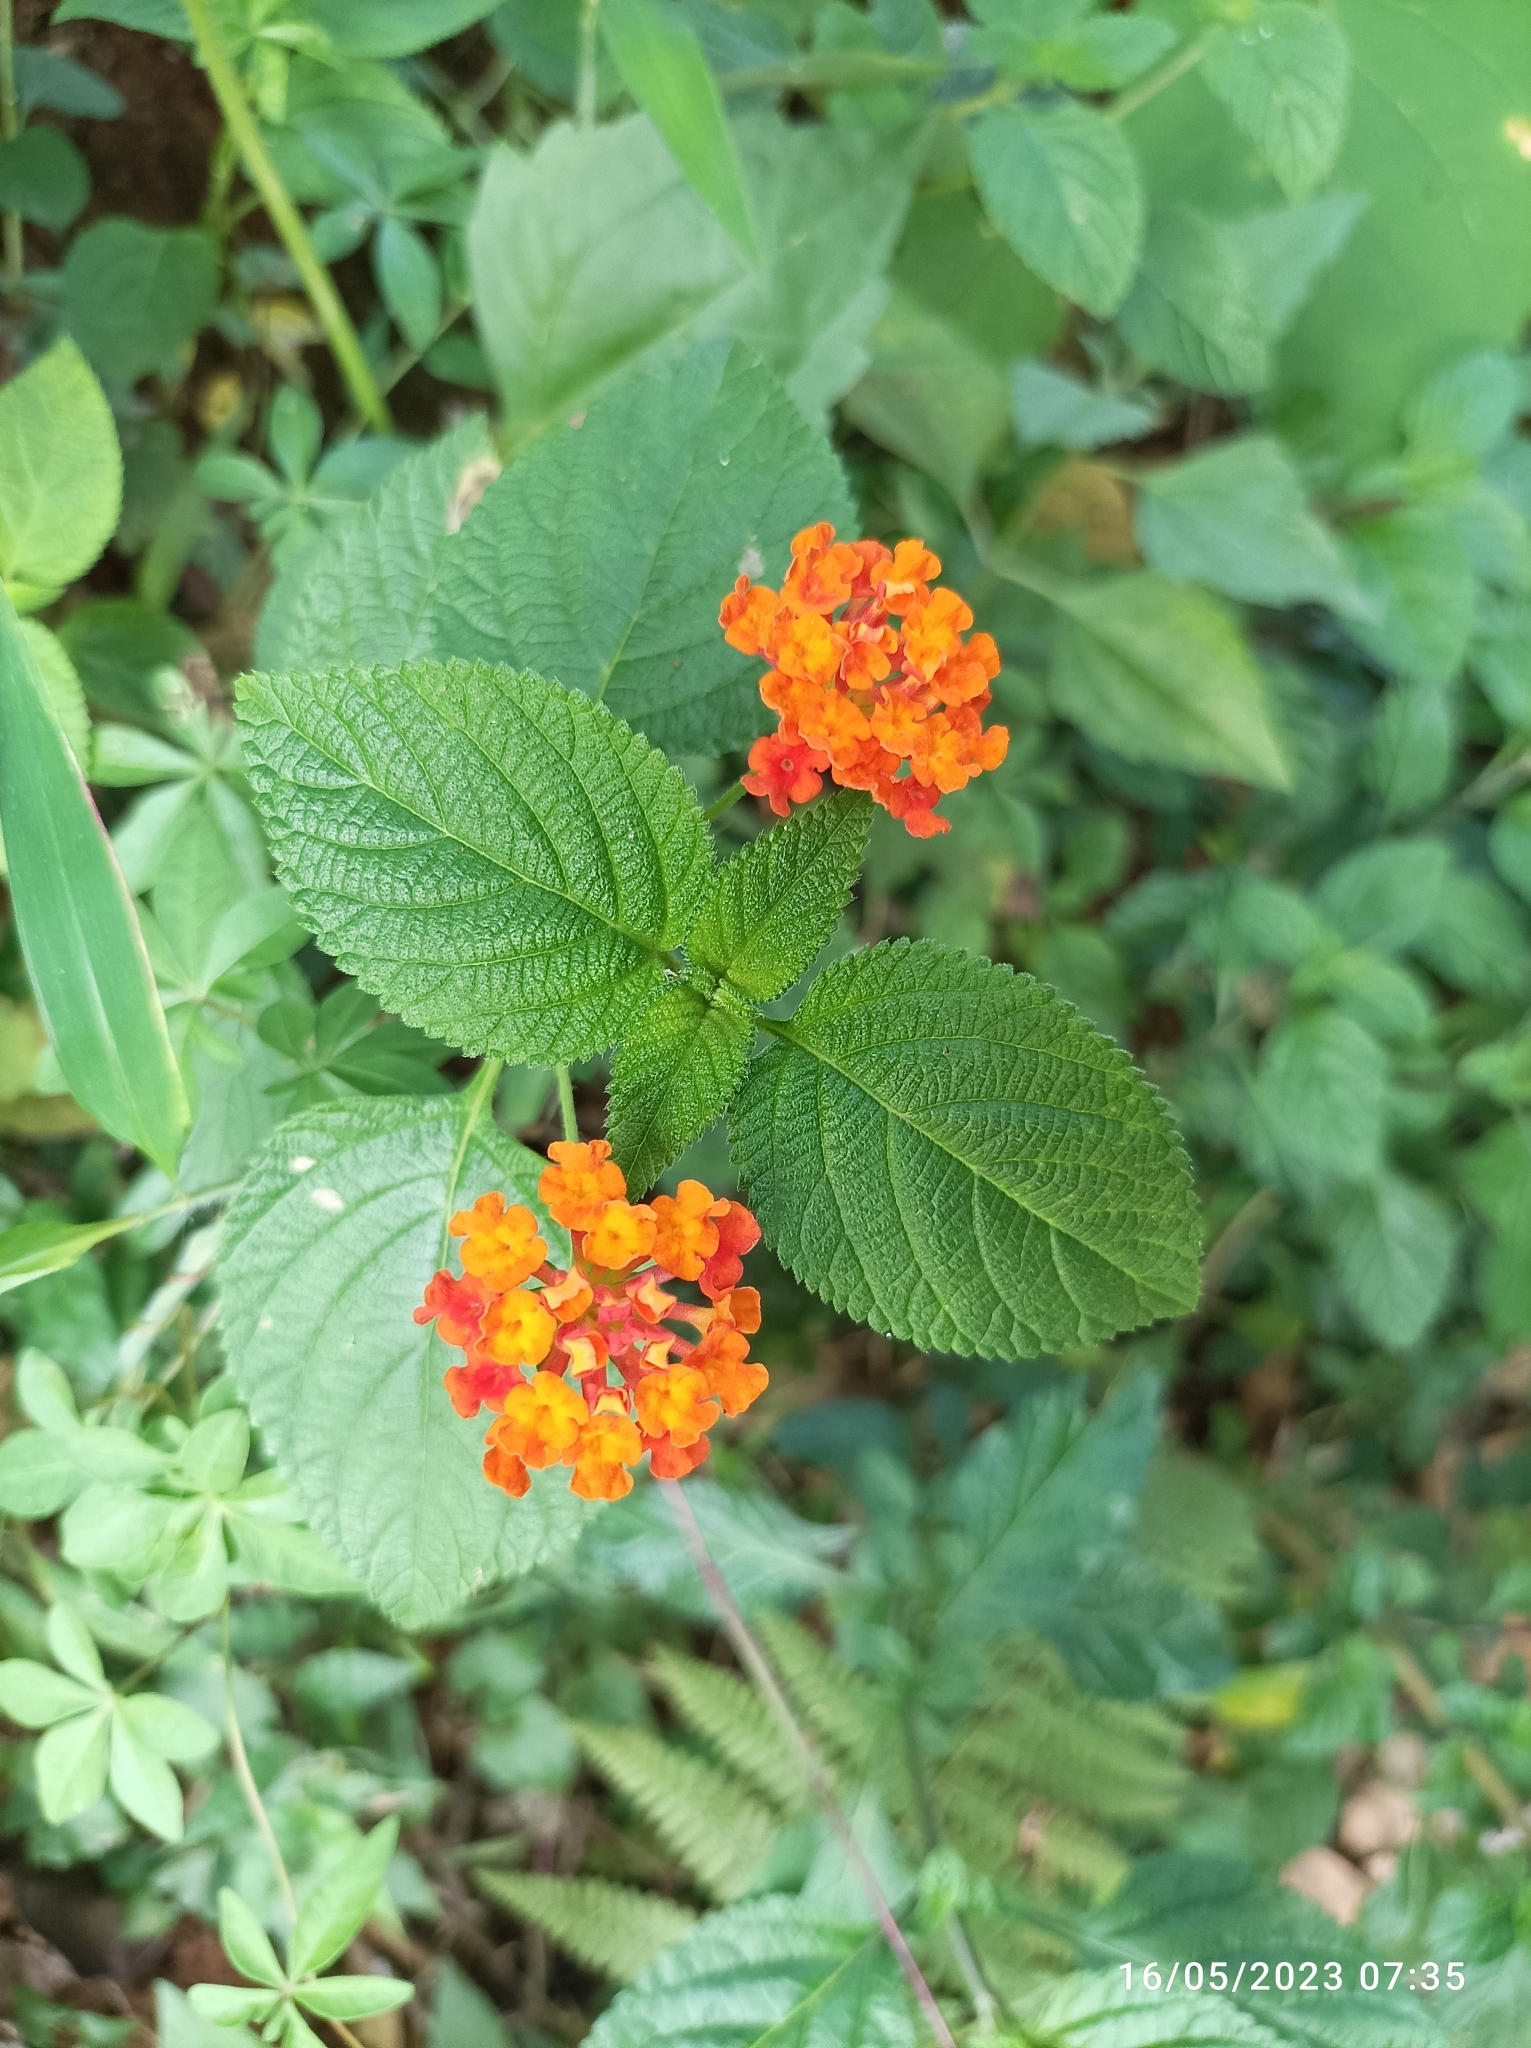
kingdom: Plantae
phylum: Tracheophyta
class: Magnoliopsida
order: Lamiales
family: Verbenaceae
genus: Lantana
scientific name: Lantana camara
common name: Lantana
